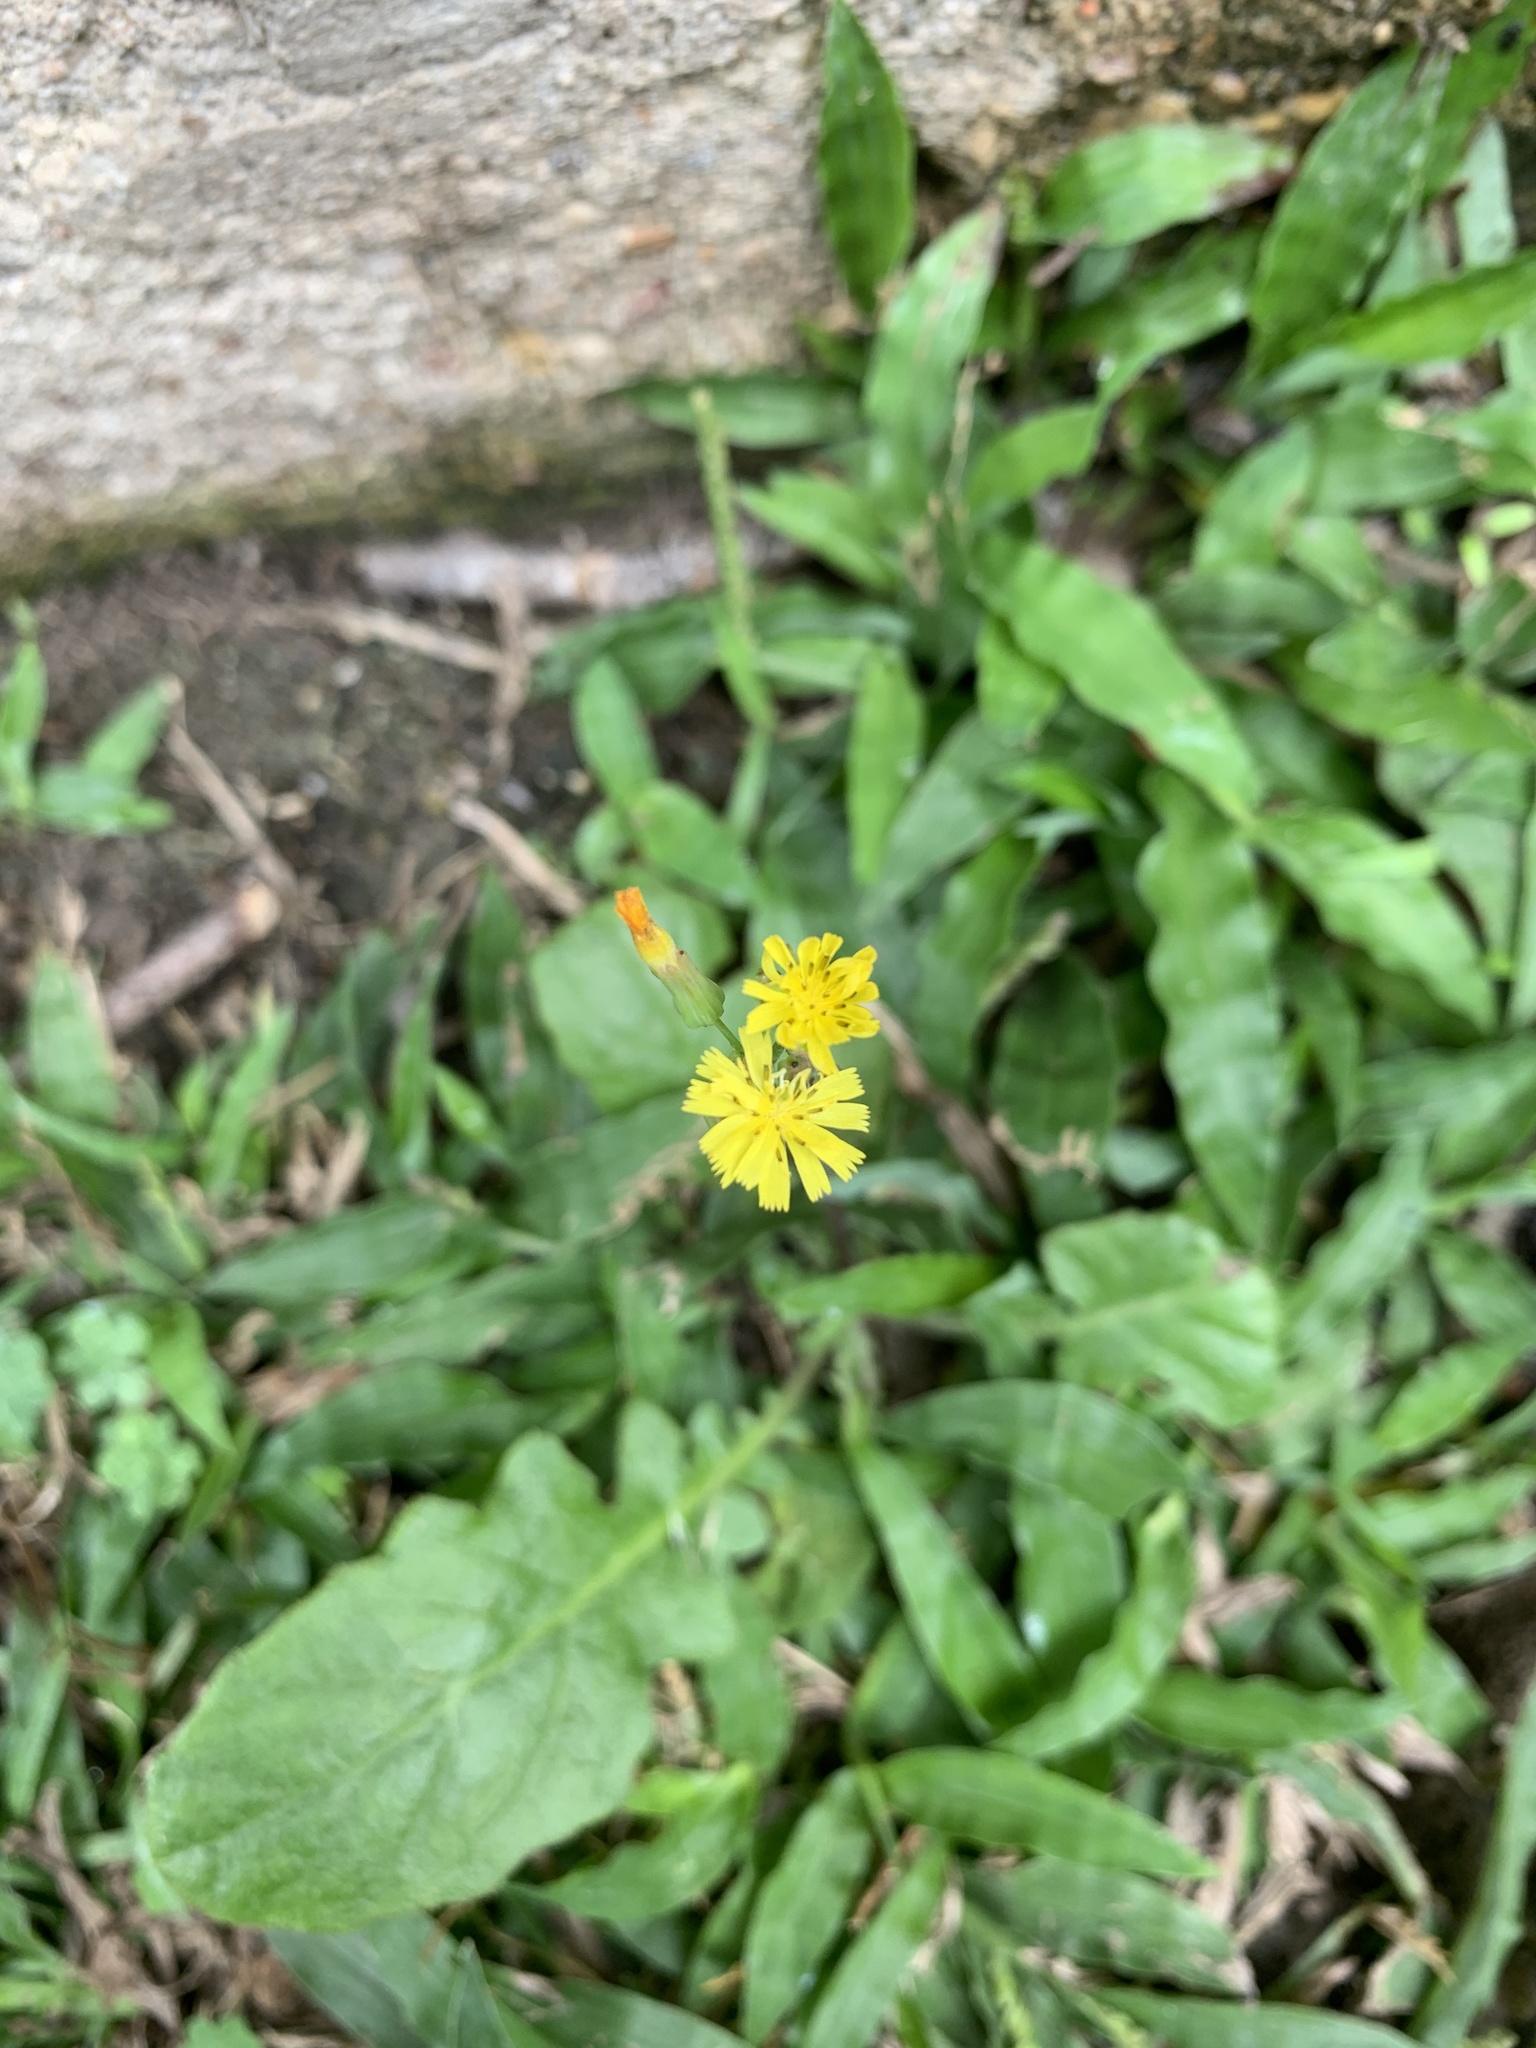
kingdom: Plantae
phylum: Tracheophyta
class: Magnoliopsida
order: Asterales
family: Asteraceae
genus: Youngia
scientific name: Youngia japonica
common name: Oriental false hawksbeard
